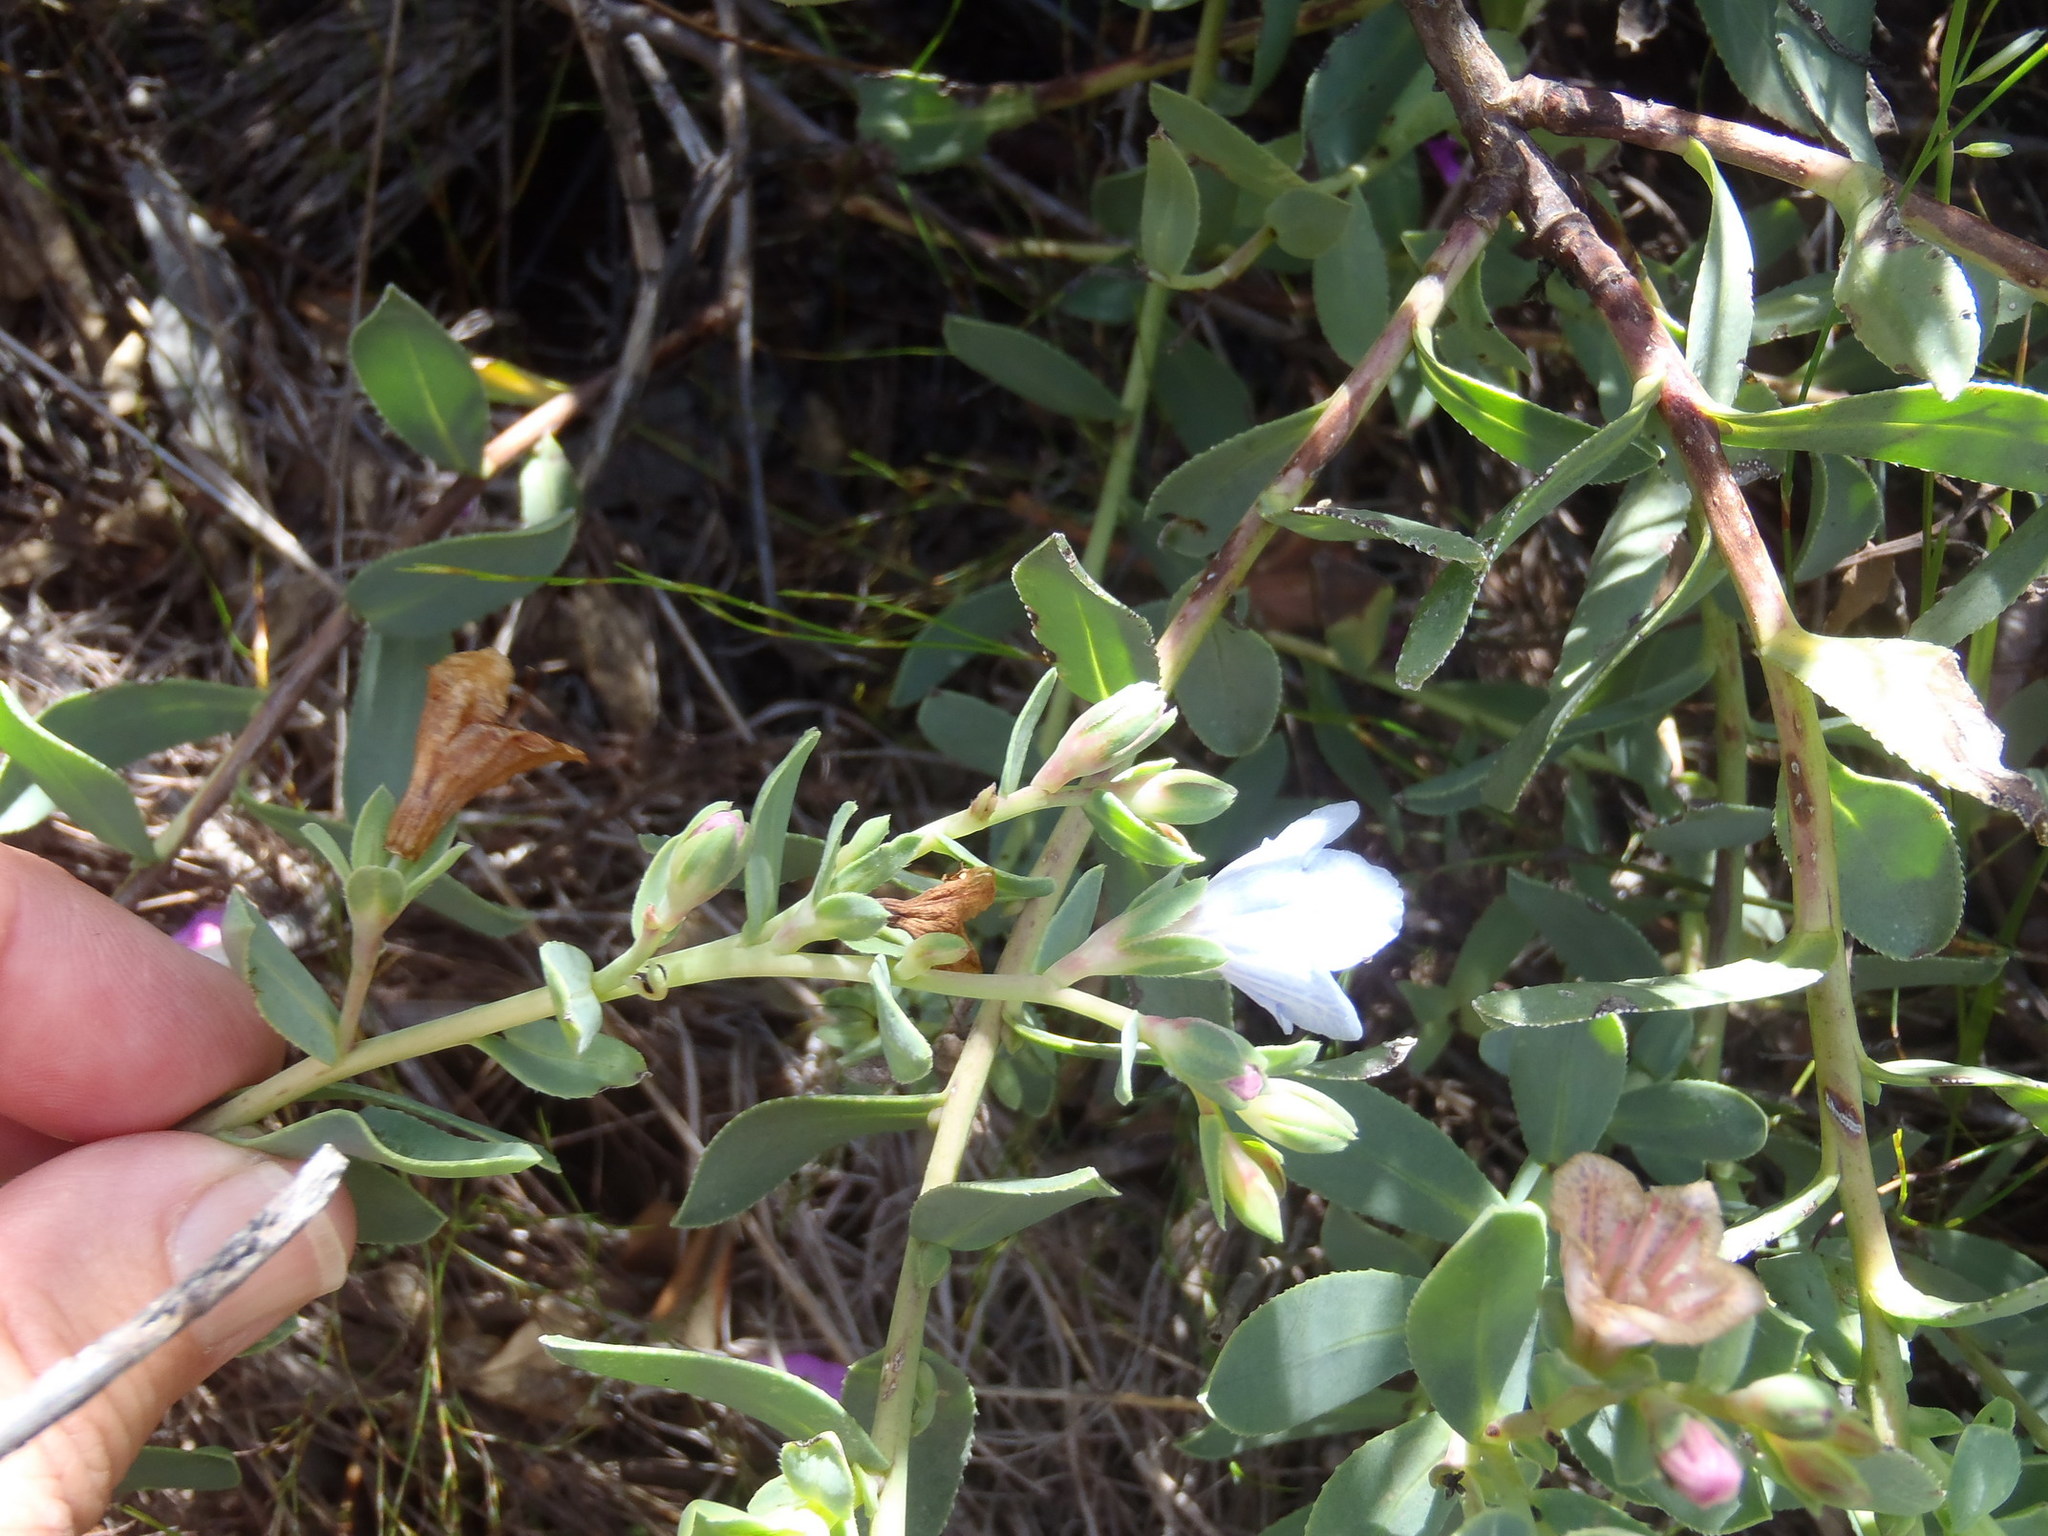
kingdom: Plantae
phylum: Tracheophyta
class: Magnoliopsida
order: Boraginales
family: Boraginaceae
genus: Lobostemon
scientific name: Lobostemon glaucophyllus
